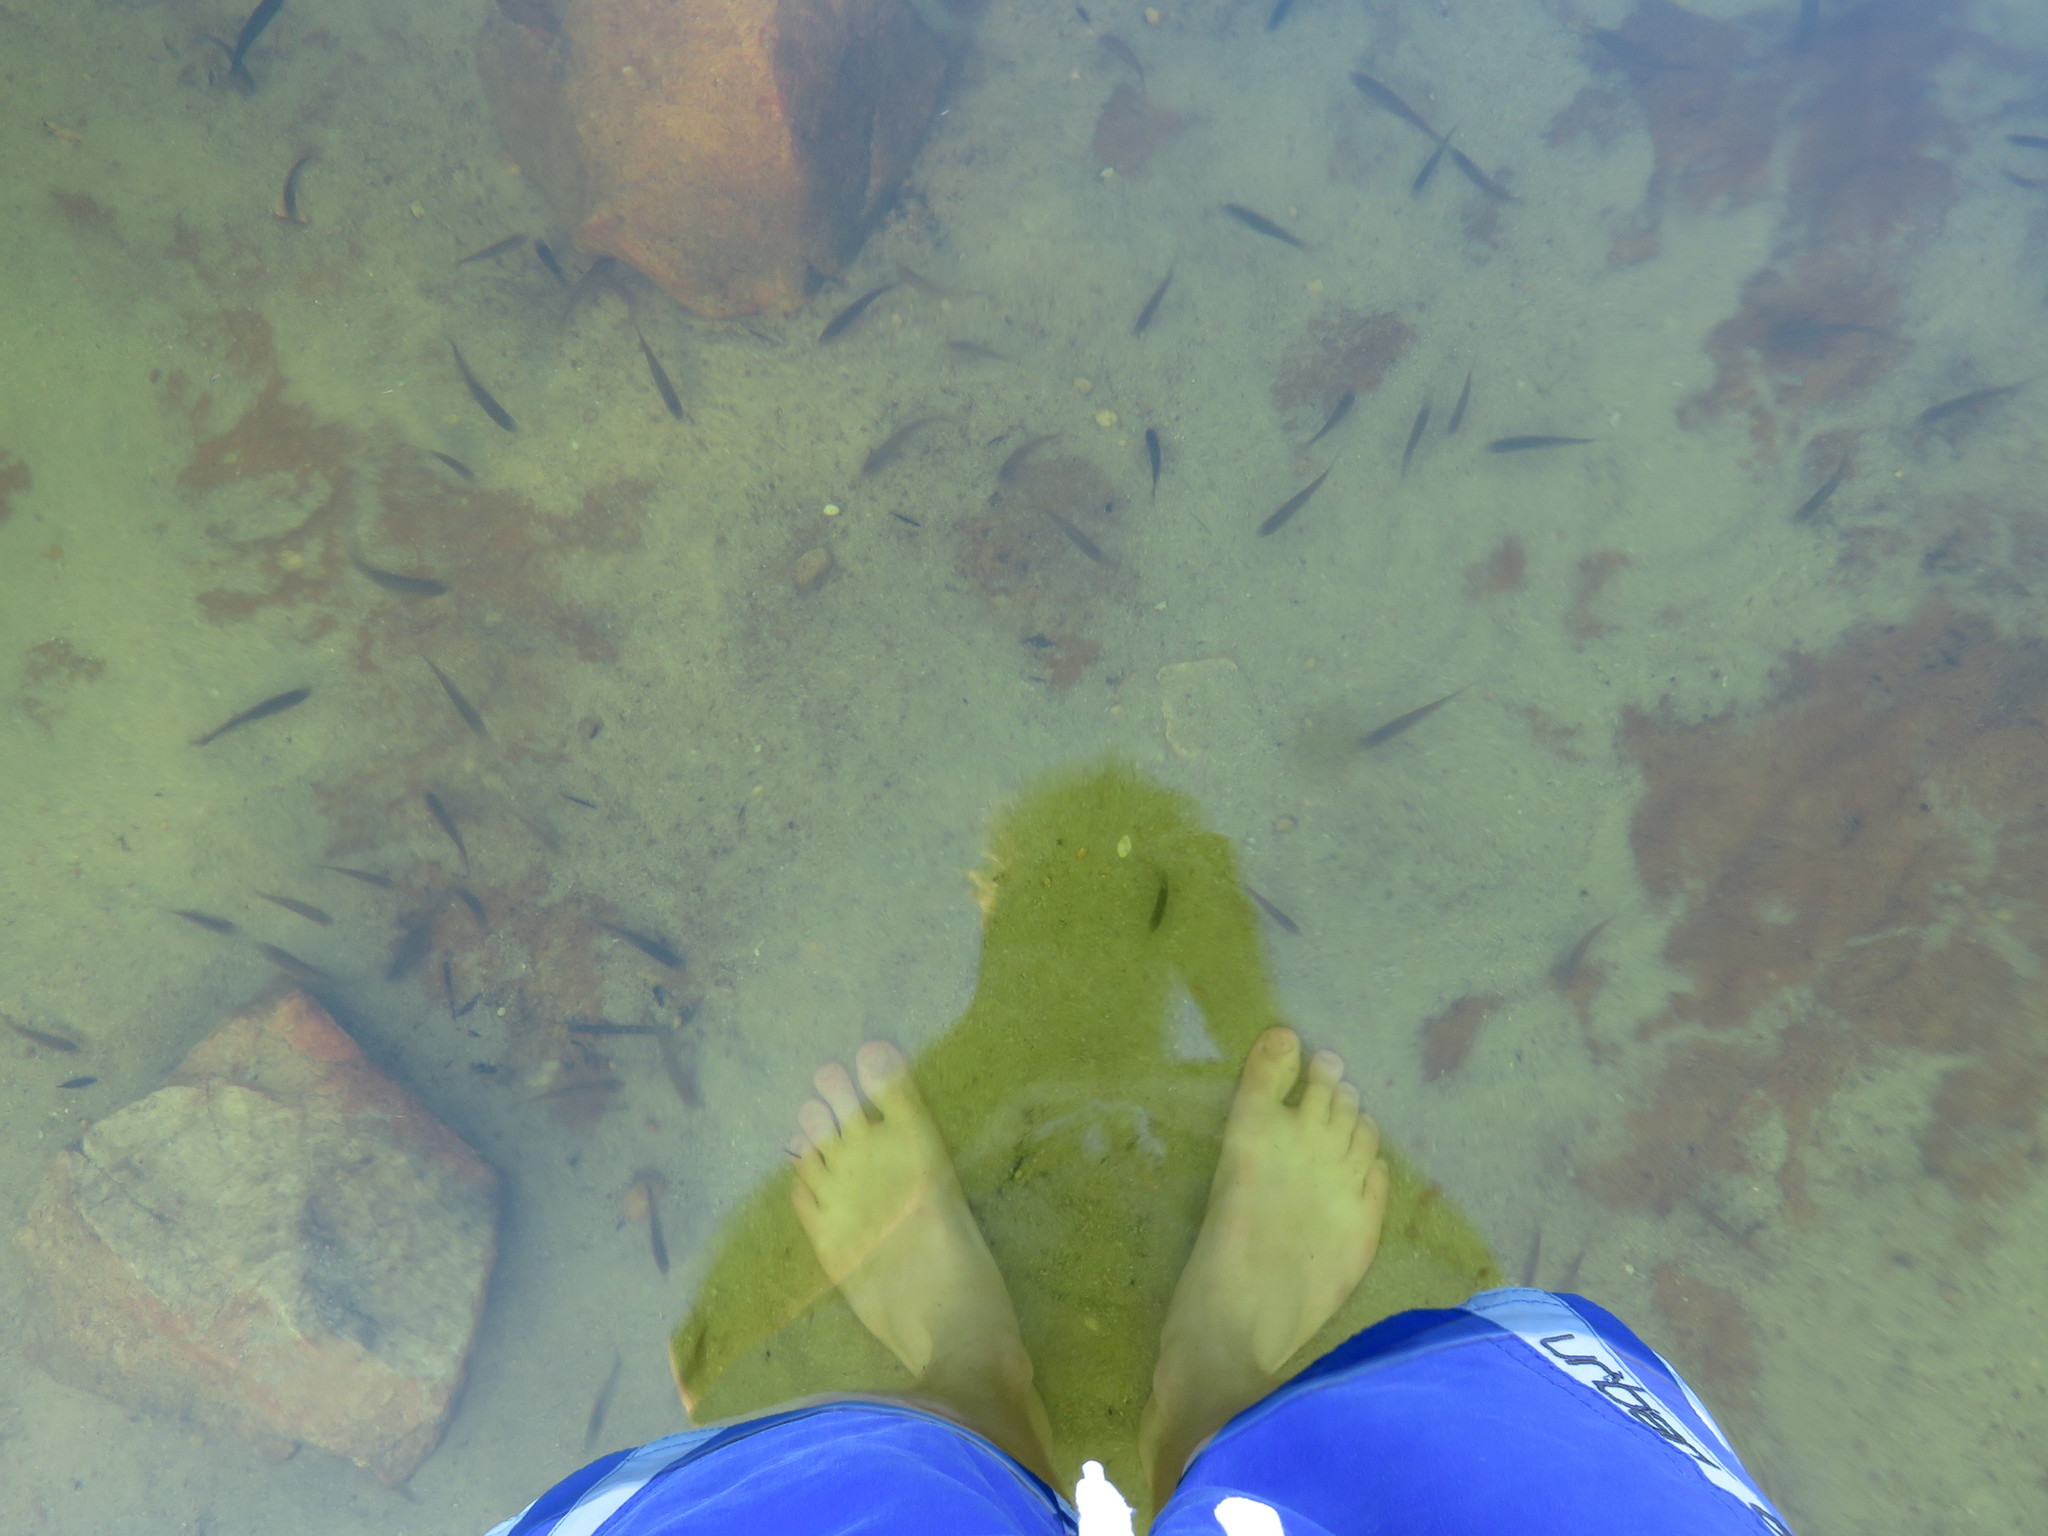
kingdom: Animalia
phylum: Chordata
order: Cypriniformes
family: Cyprinidae
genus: Pseudobarbus
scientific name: Pseudobarbus calidus
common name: Clanwilliam redfin
